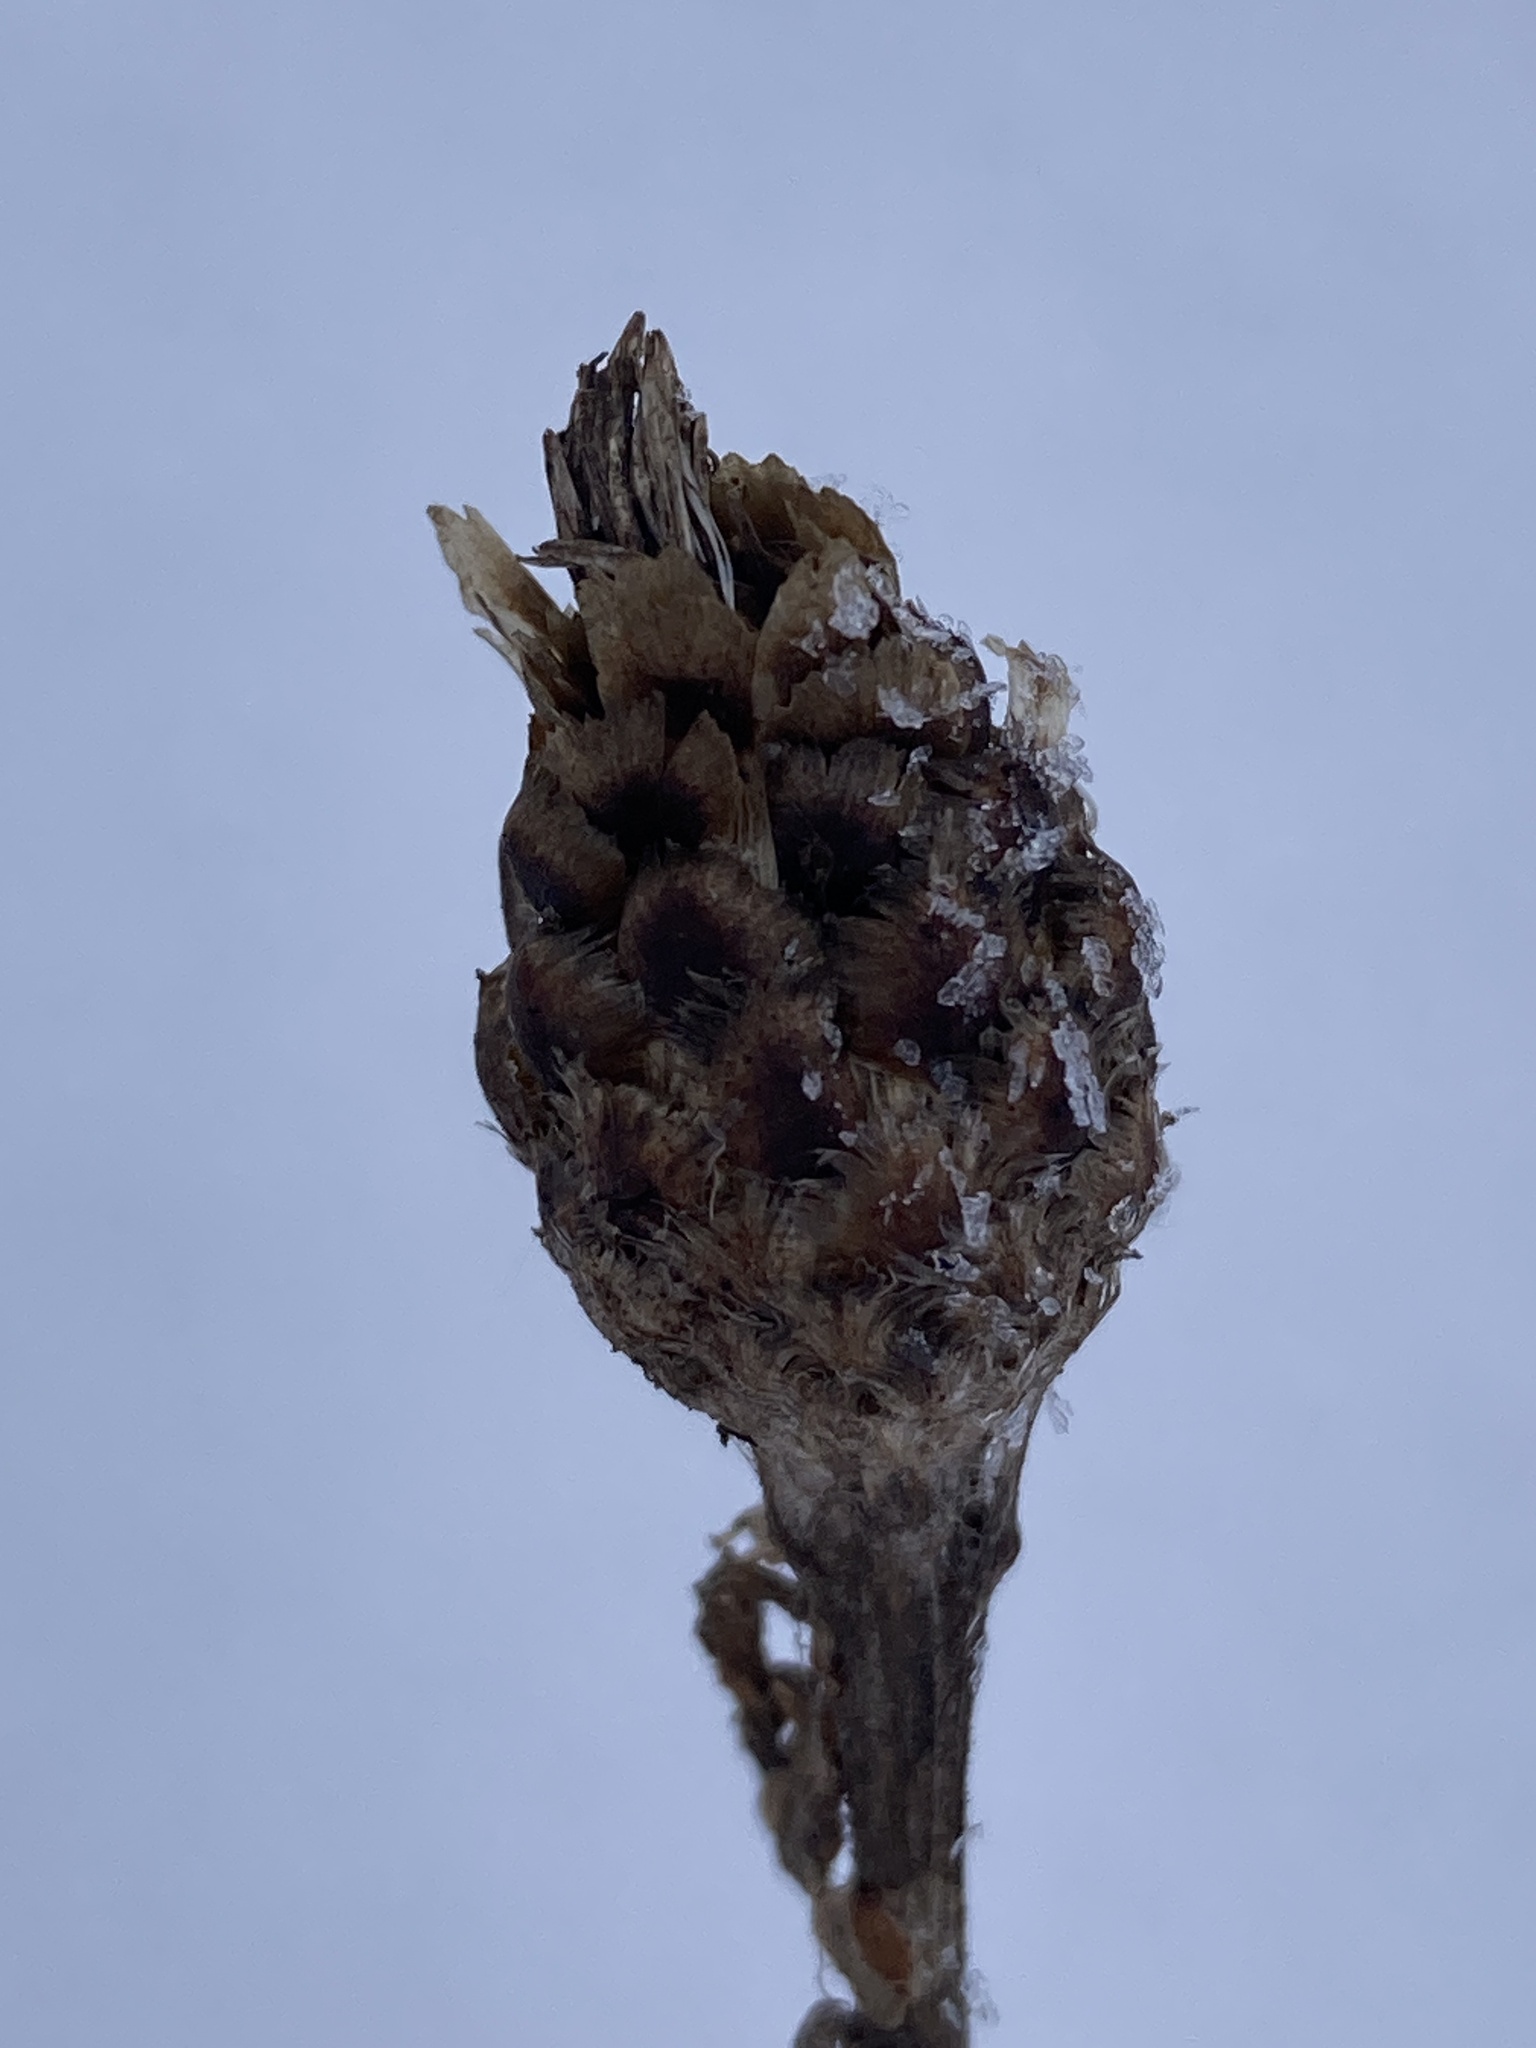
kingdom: Plantae
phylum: Tracheophyta
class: Magnoliopsida
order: Asterales
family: Asteraceae
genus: Centaurea
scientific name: Centaurea jacea
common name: Brown knapweed
